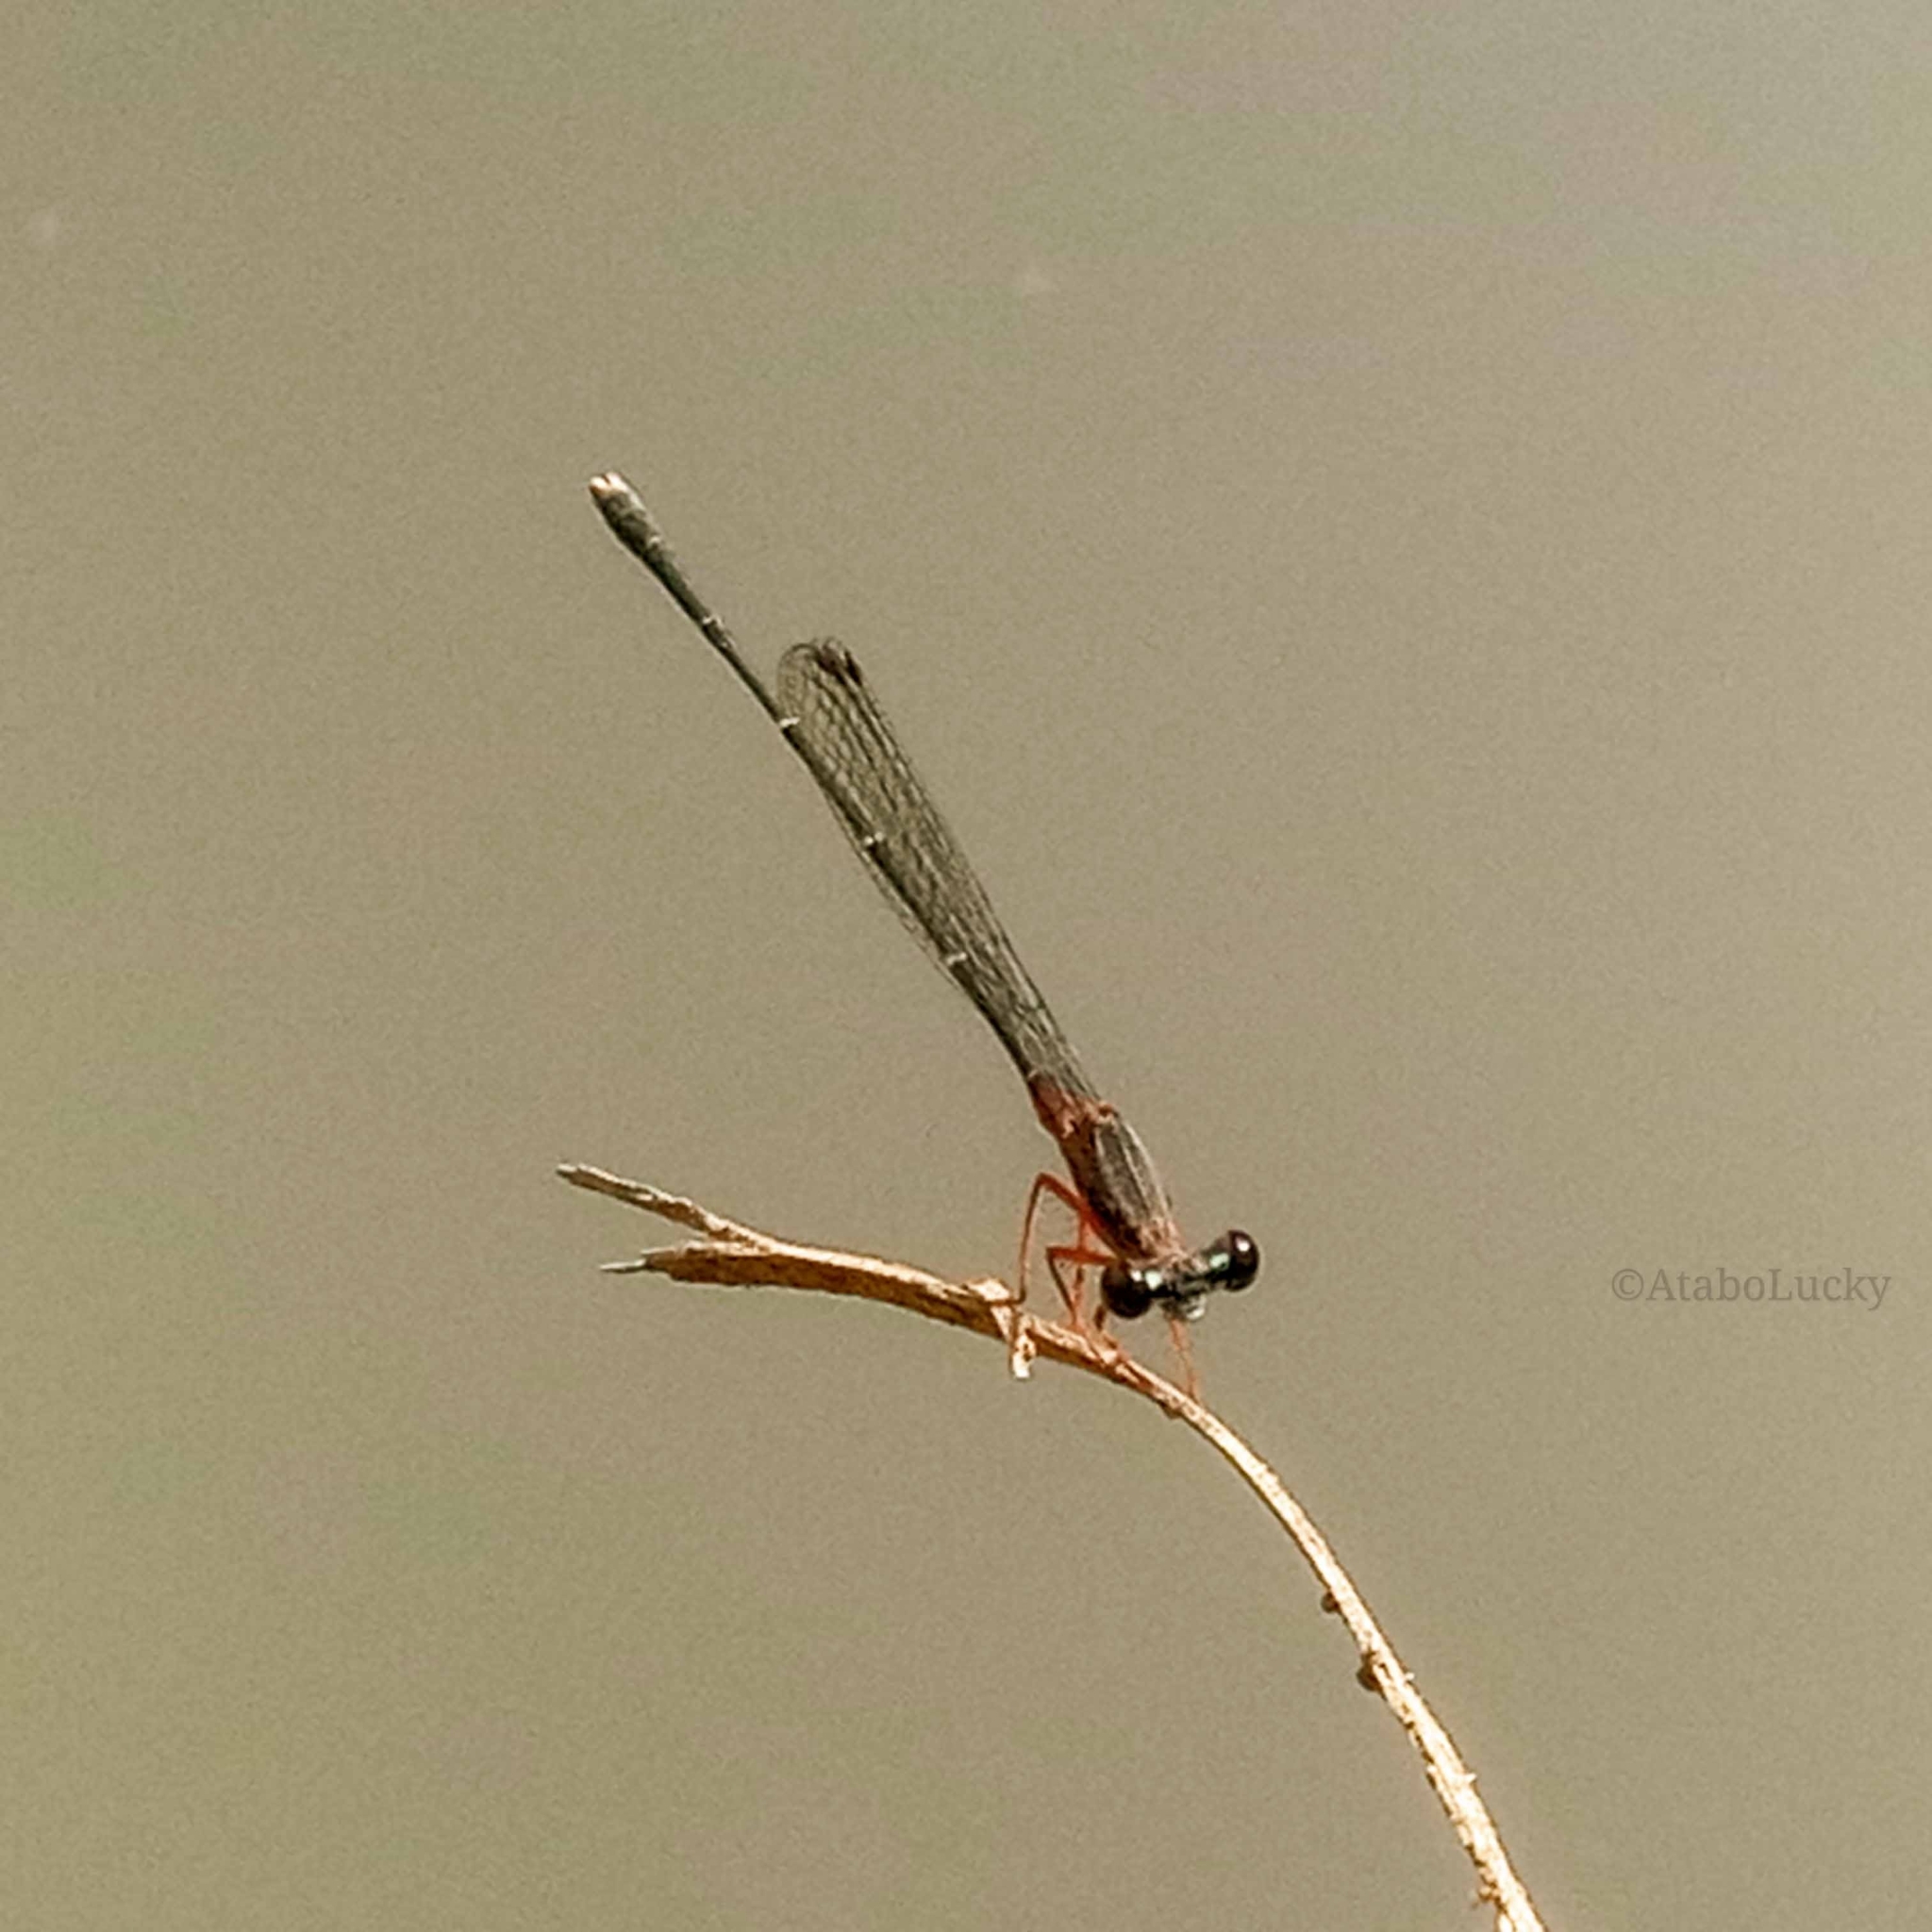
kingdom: Animalia
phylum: Arthropoda
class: Insecta
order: Odonata
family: Platycnemididae
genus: Copera
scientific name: Copera sikassoensis
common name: Little featherleg
